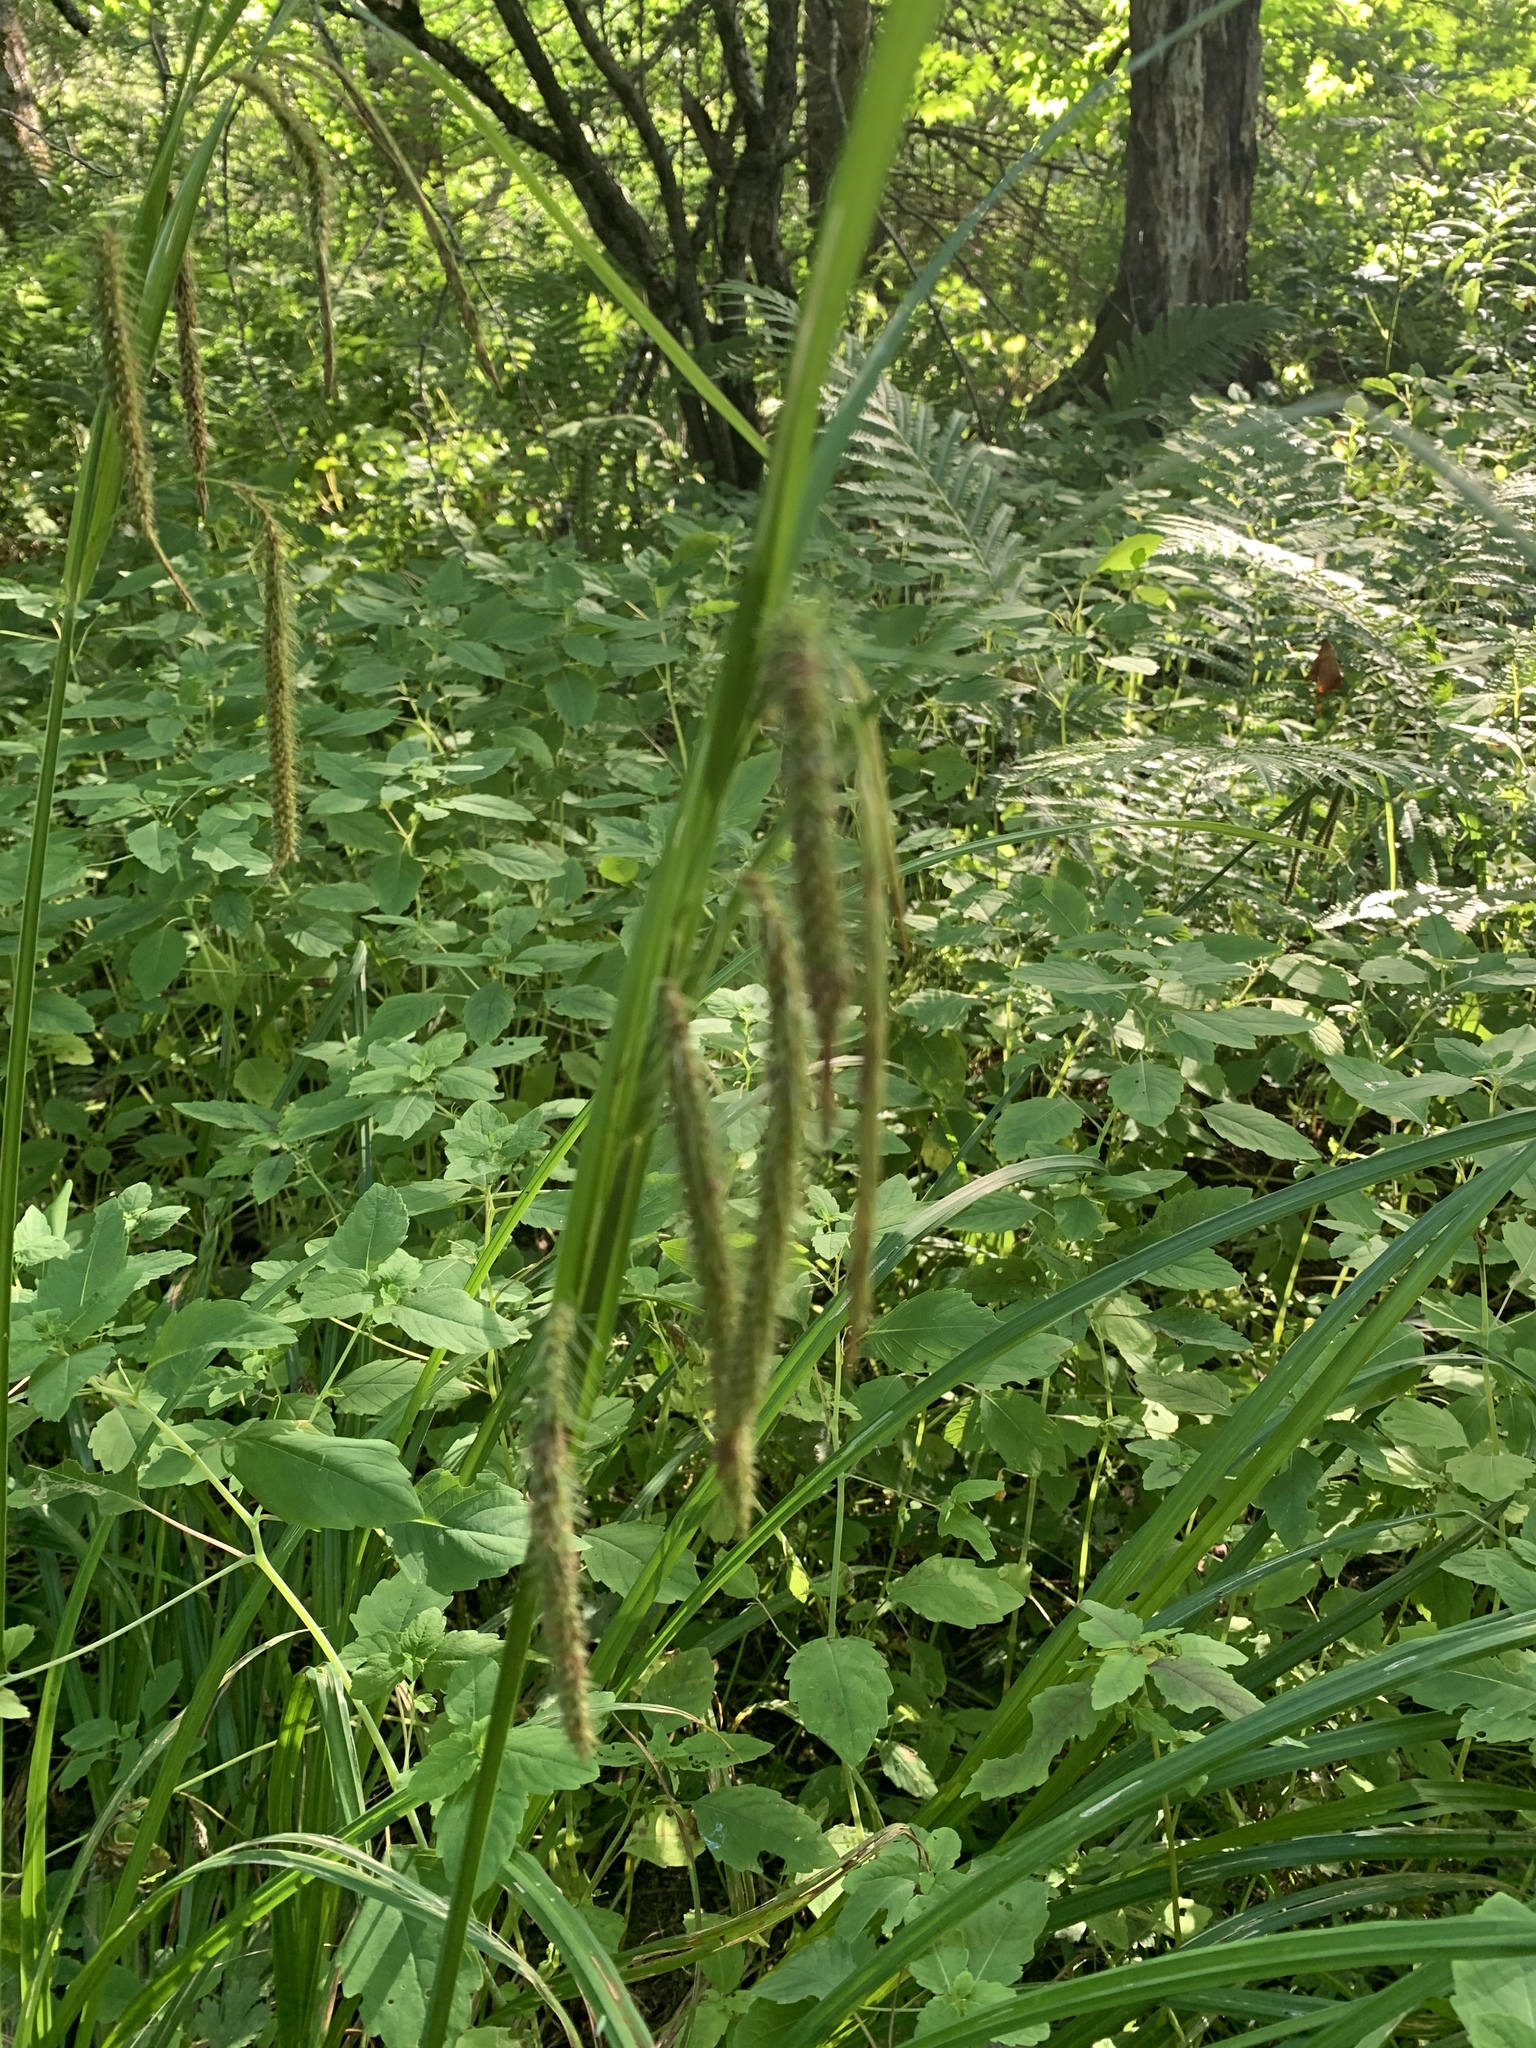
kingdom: Plantae
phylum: Tracheophyta
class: Liliopsida
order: Poales
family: Cyperaceae
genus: Carex
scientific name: Carex crinita
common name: Fringed sedge
